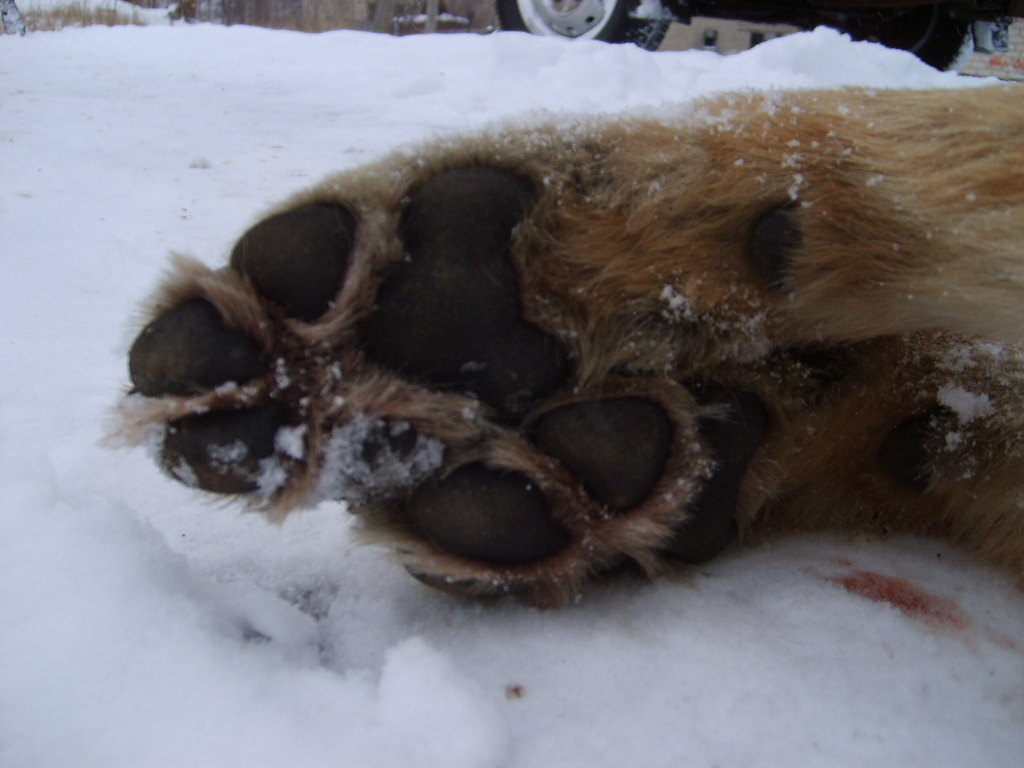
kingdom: Animalia
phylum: Chordata
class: Mammalia
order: Carnivora
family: Canidae
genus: Canis
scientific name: Canis lupus
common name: Gray wolf
